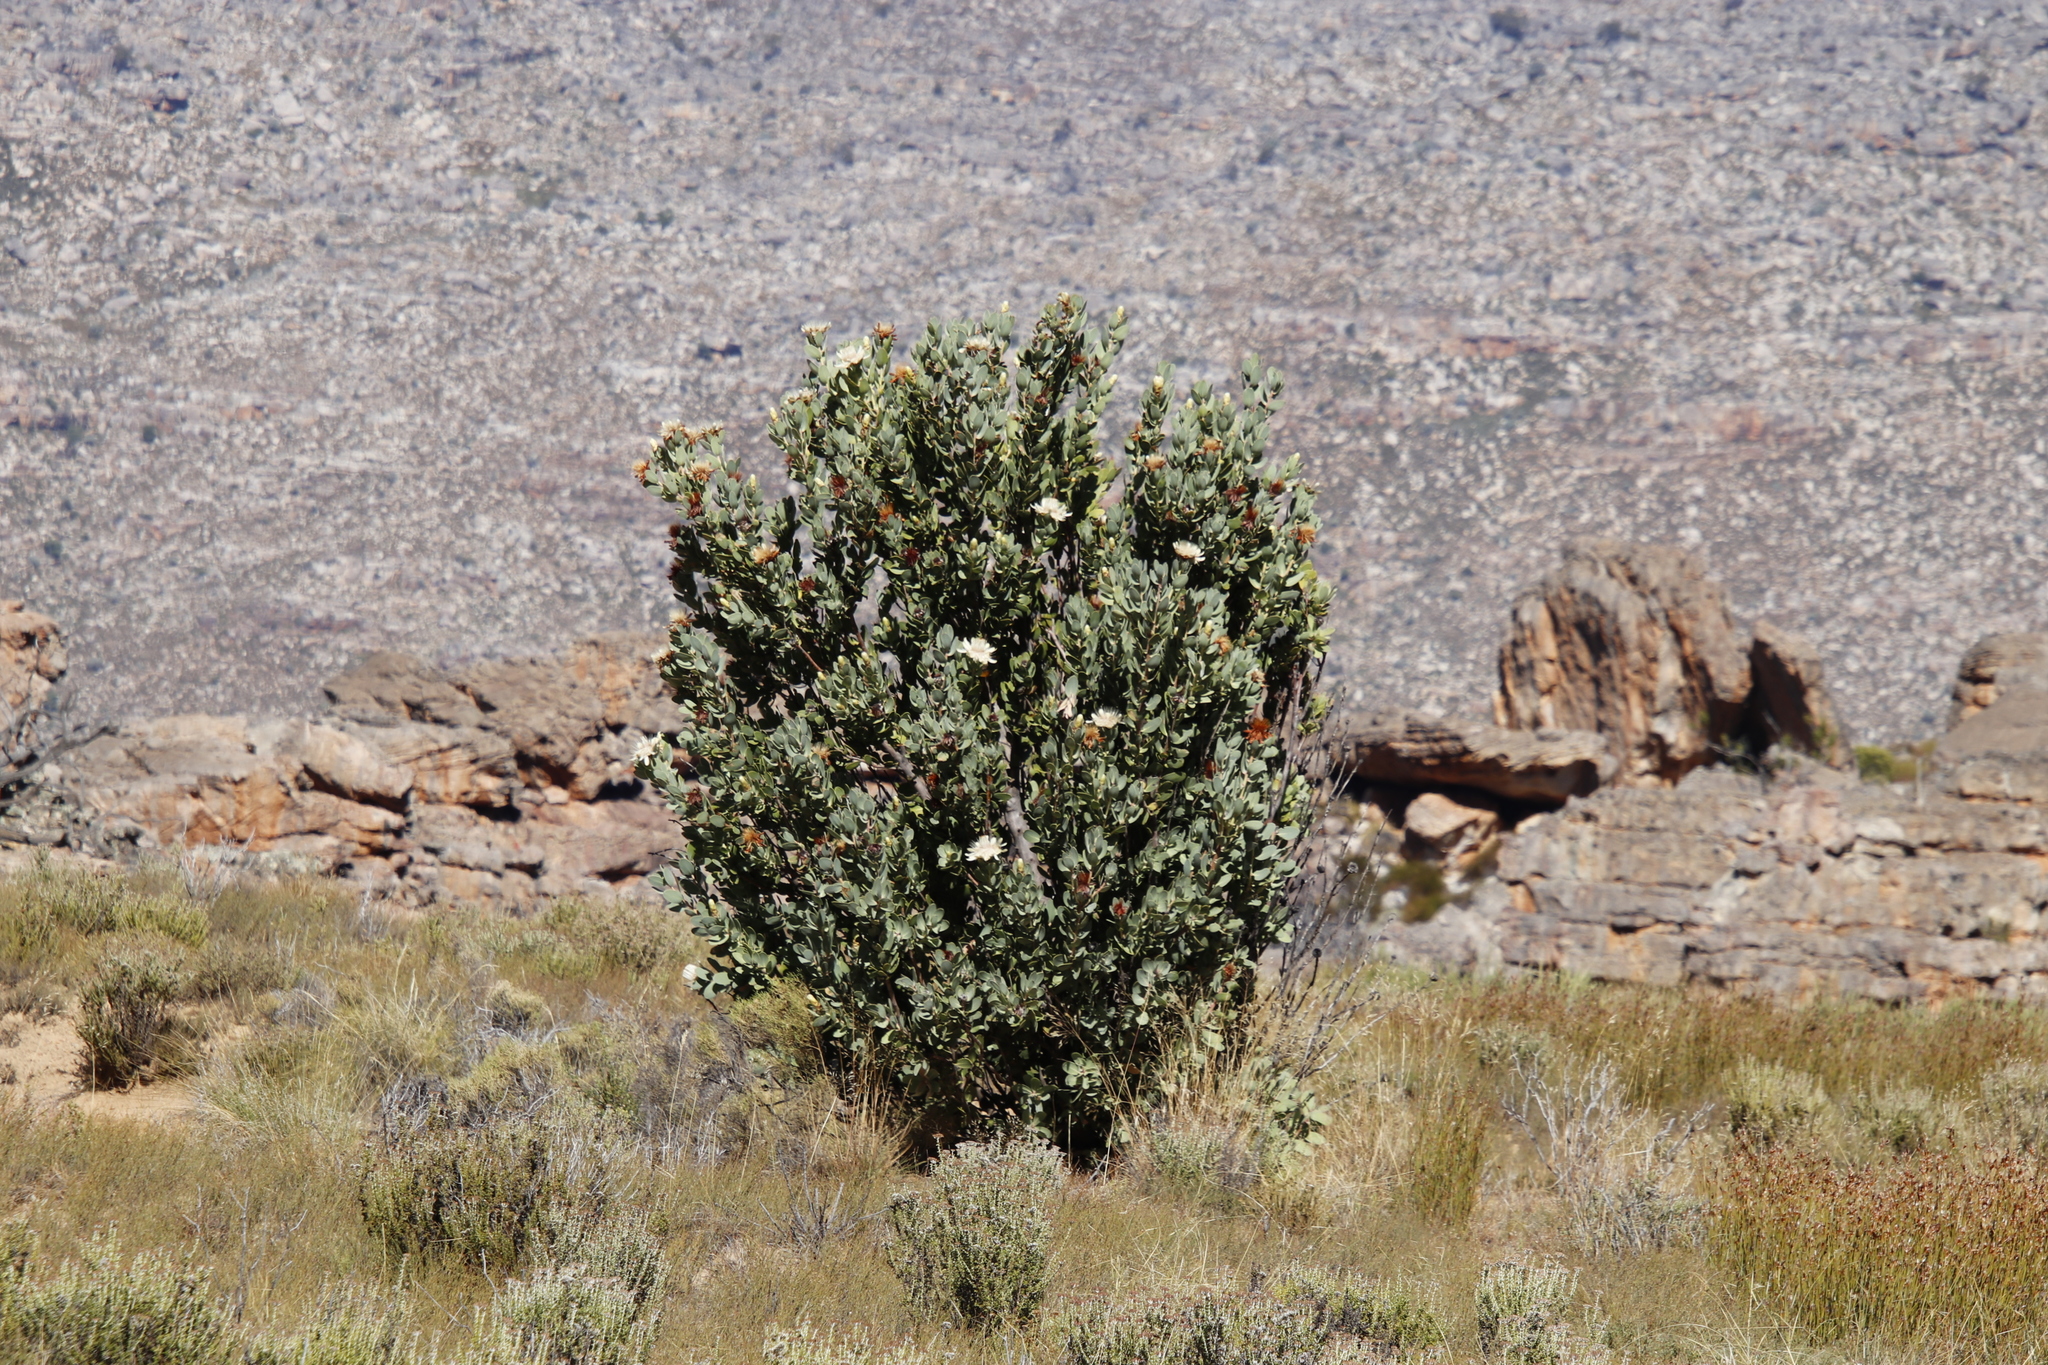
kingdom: Plantae
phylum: Tracheophyta
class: Magnoliopsida
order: Proteales
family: Proteaceae
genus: Protea
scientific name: Protea punctata
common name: Water sugarbush
